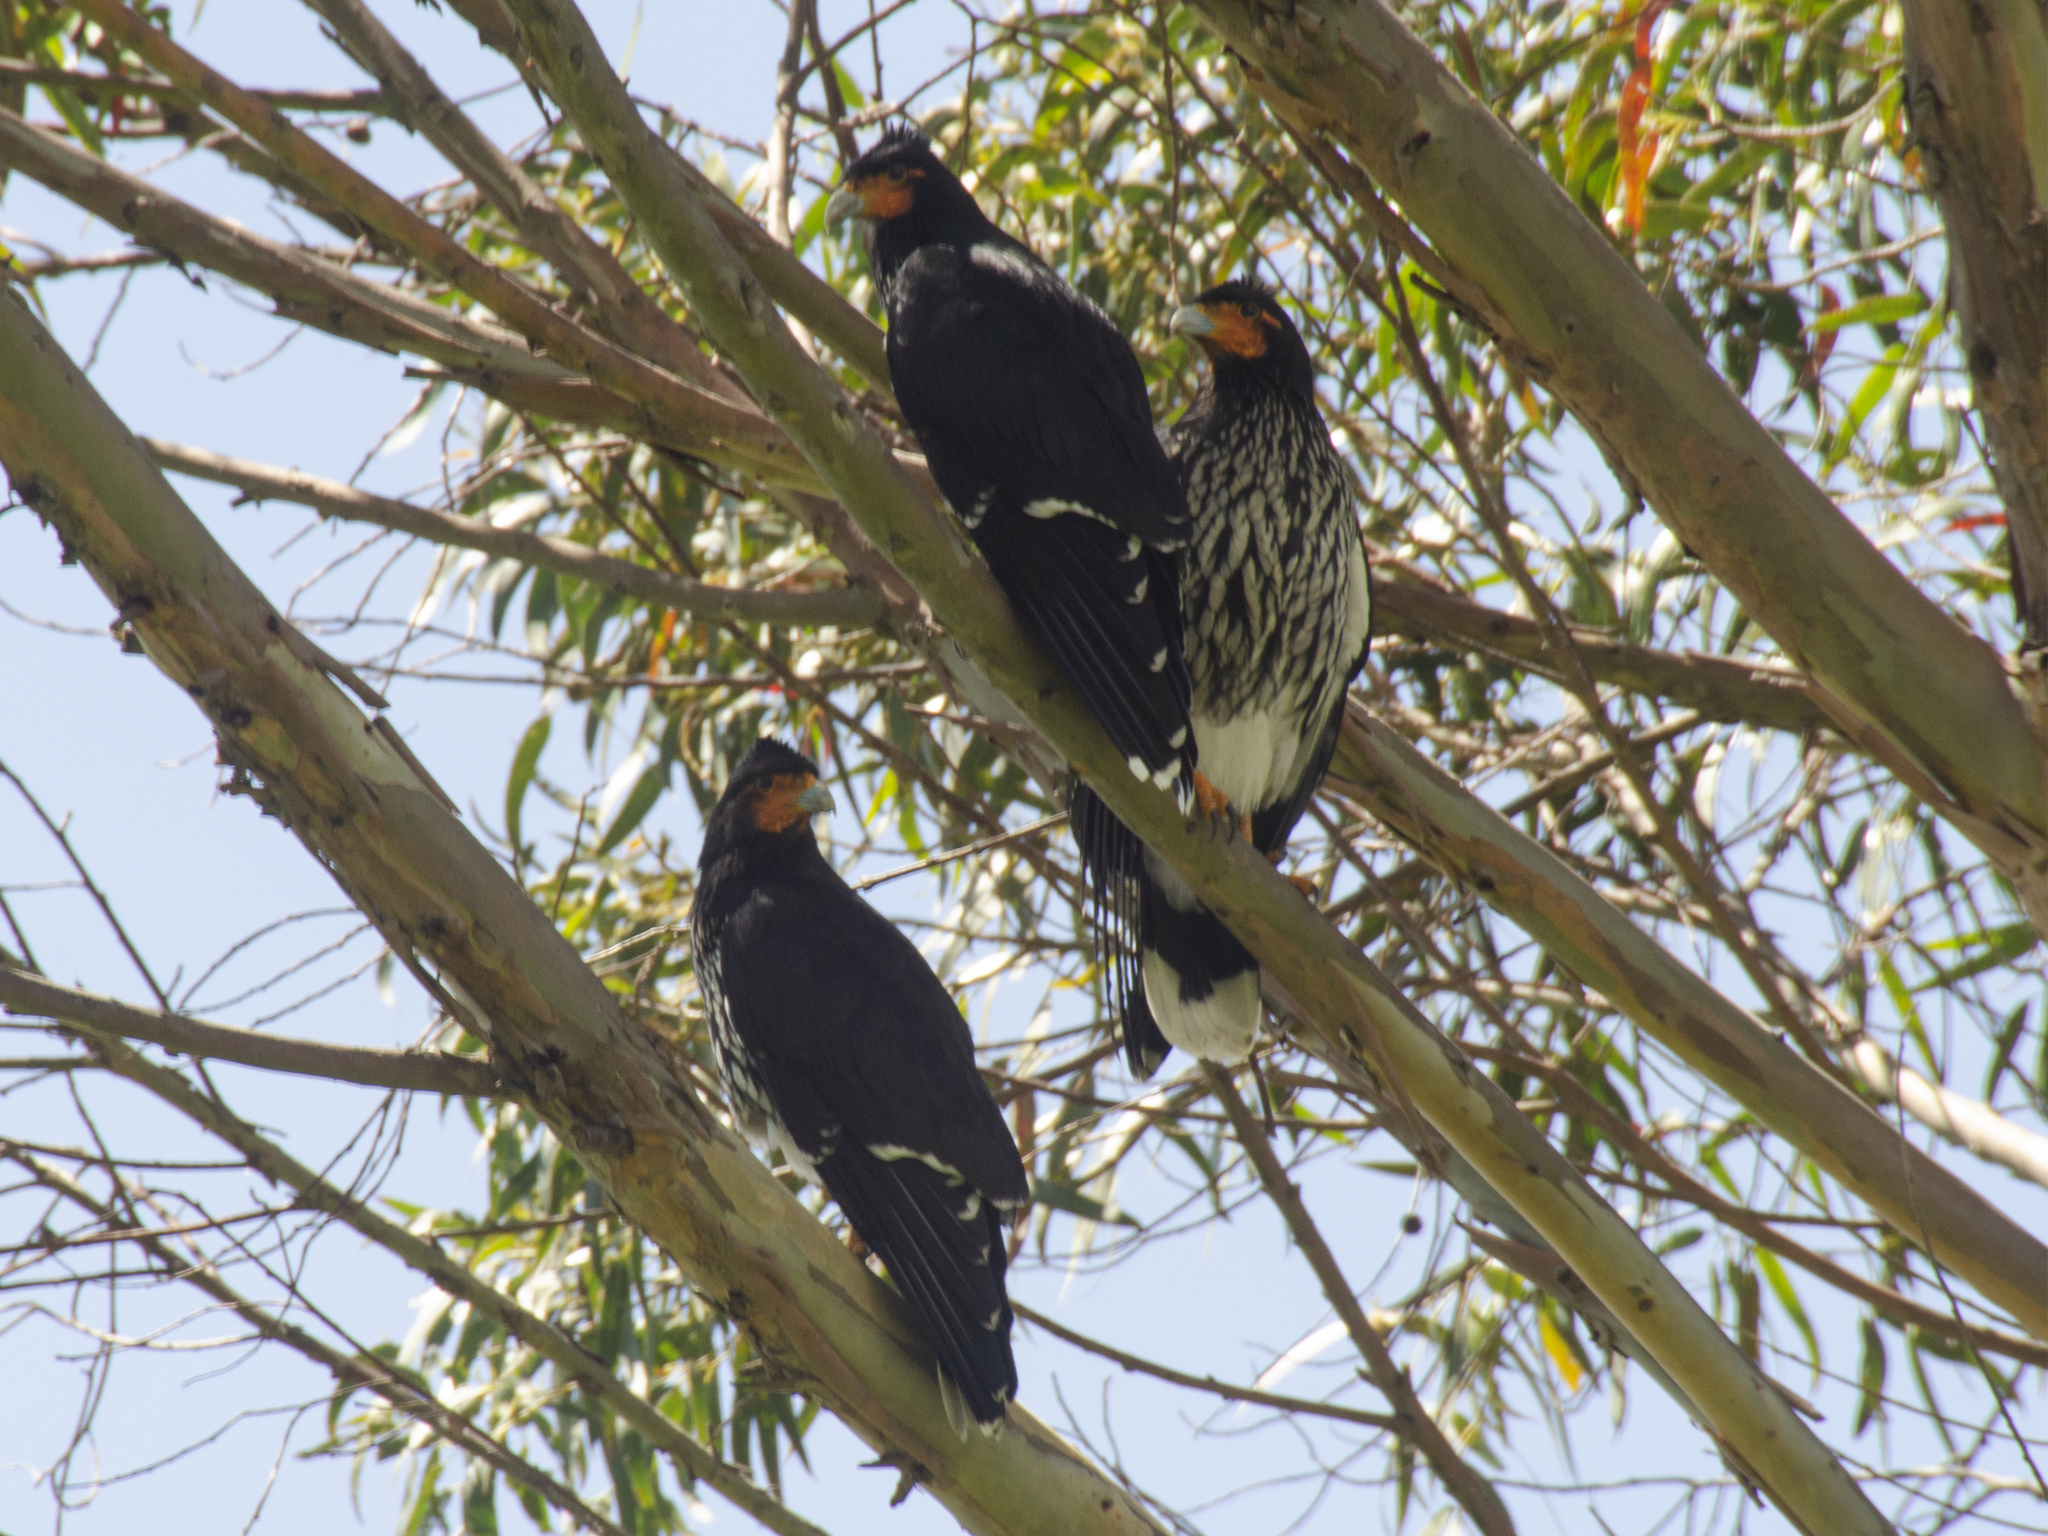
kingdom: Animalia
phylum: Chordata
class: Aves
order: Falconiformes
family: Falconidae
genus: Daptrius
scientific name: Daptrius
